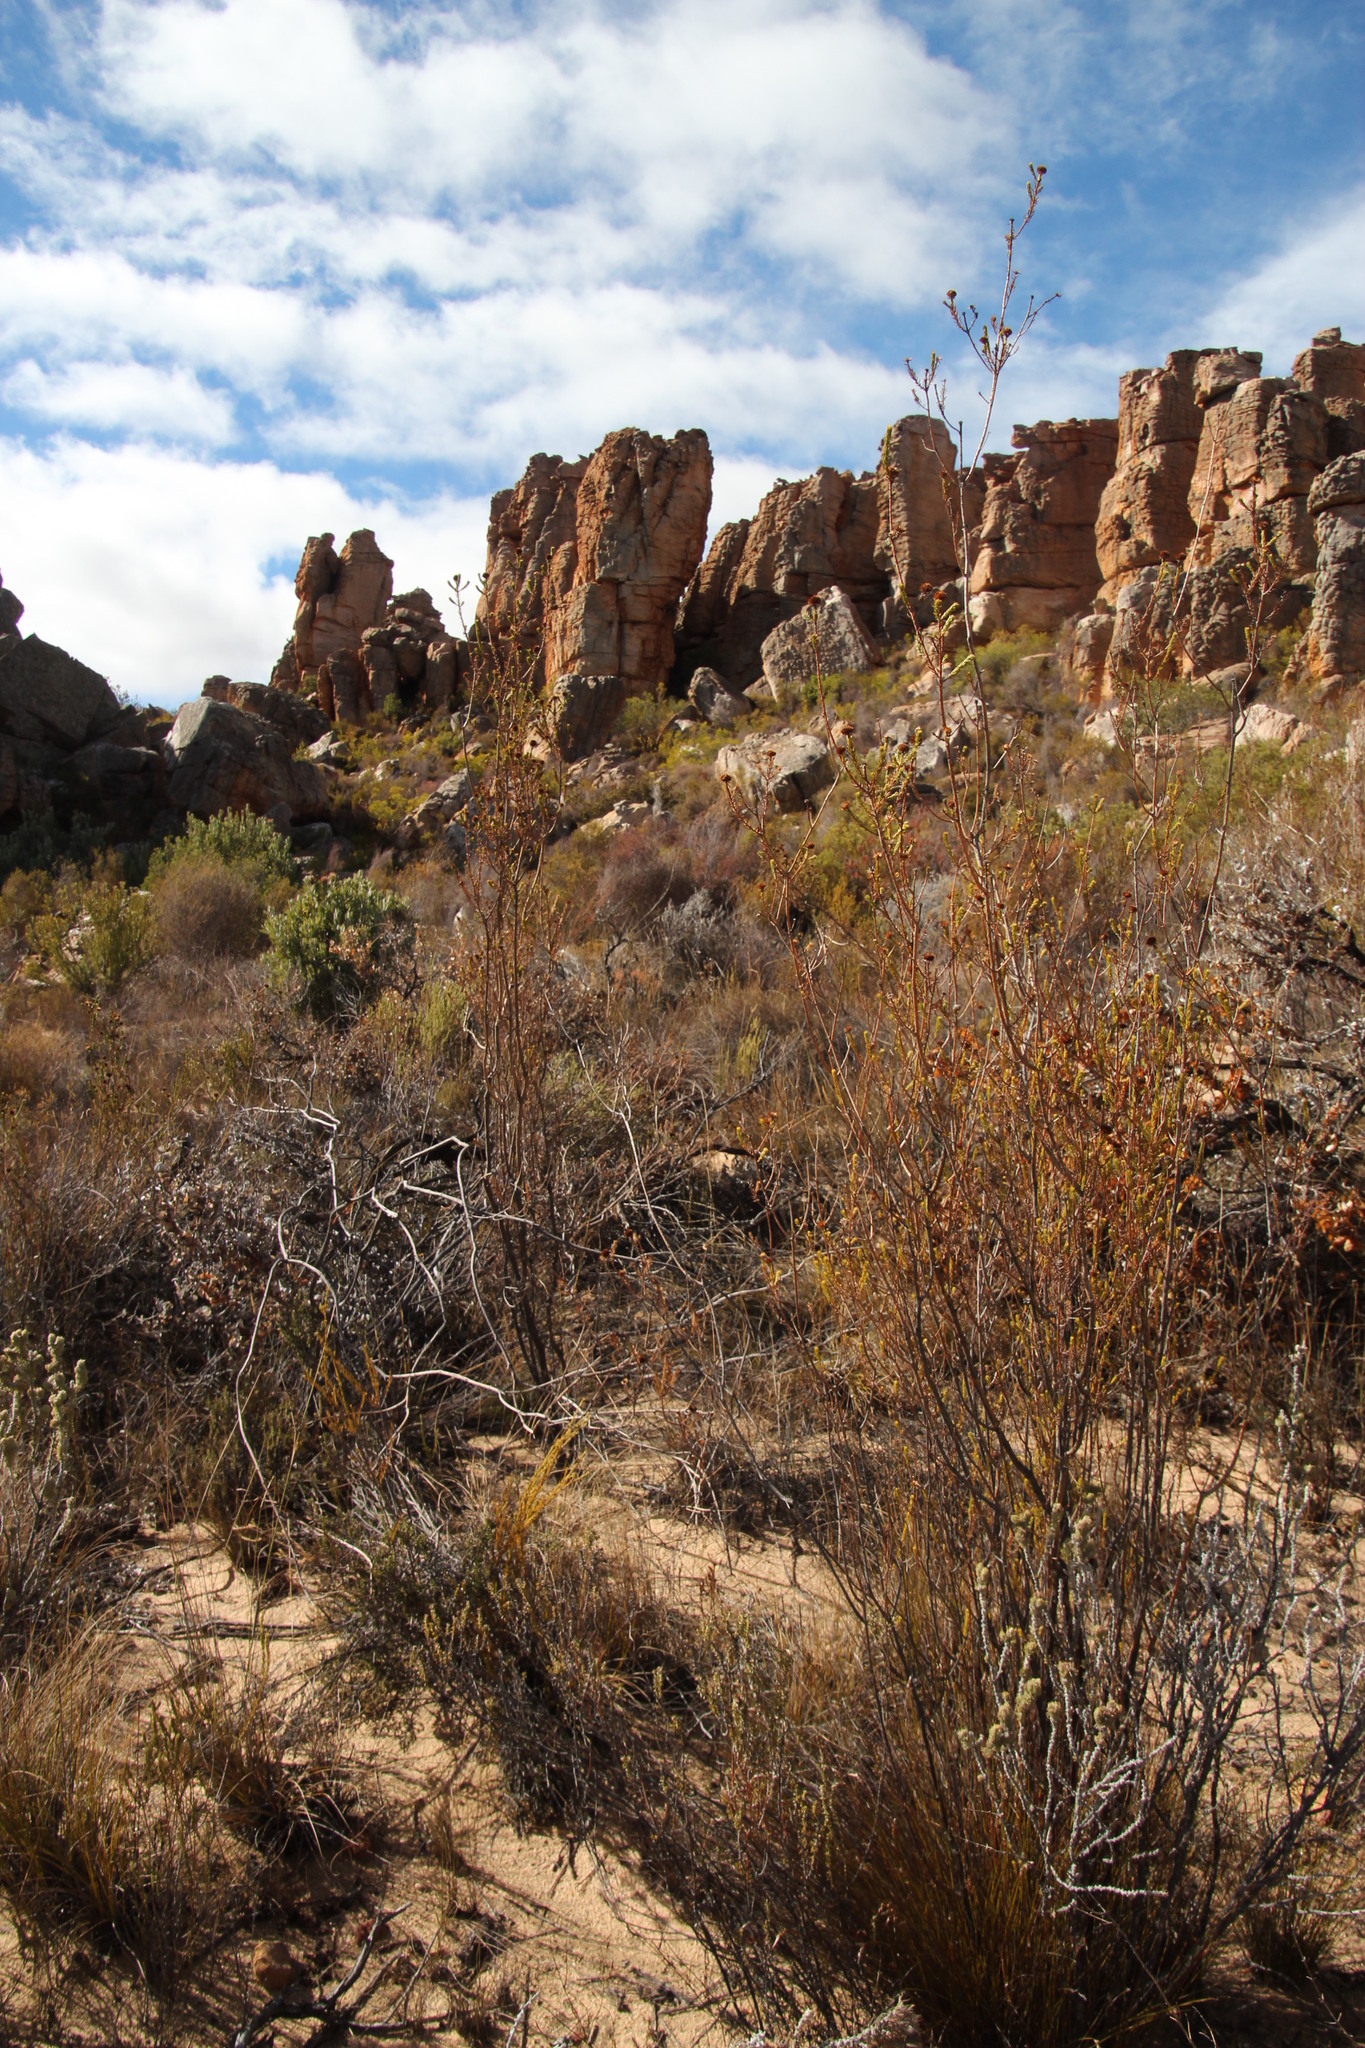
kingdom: Plantae
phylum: Tracheophyta
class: Magnoliopsida
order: Asterales
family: Asteraceae
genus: Stoebe
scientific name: Stoebe aethiopica
